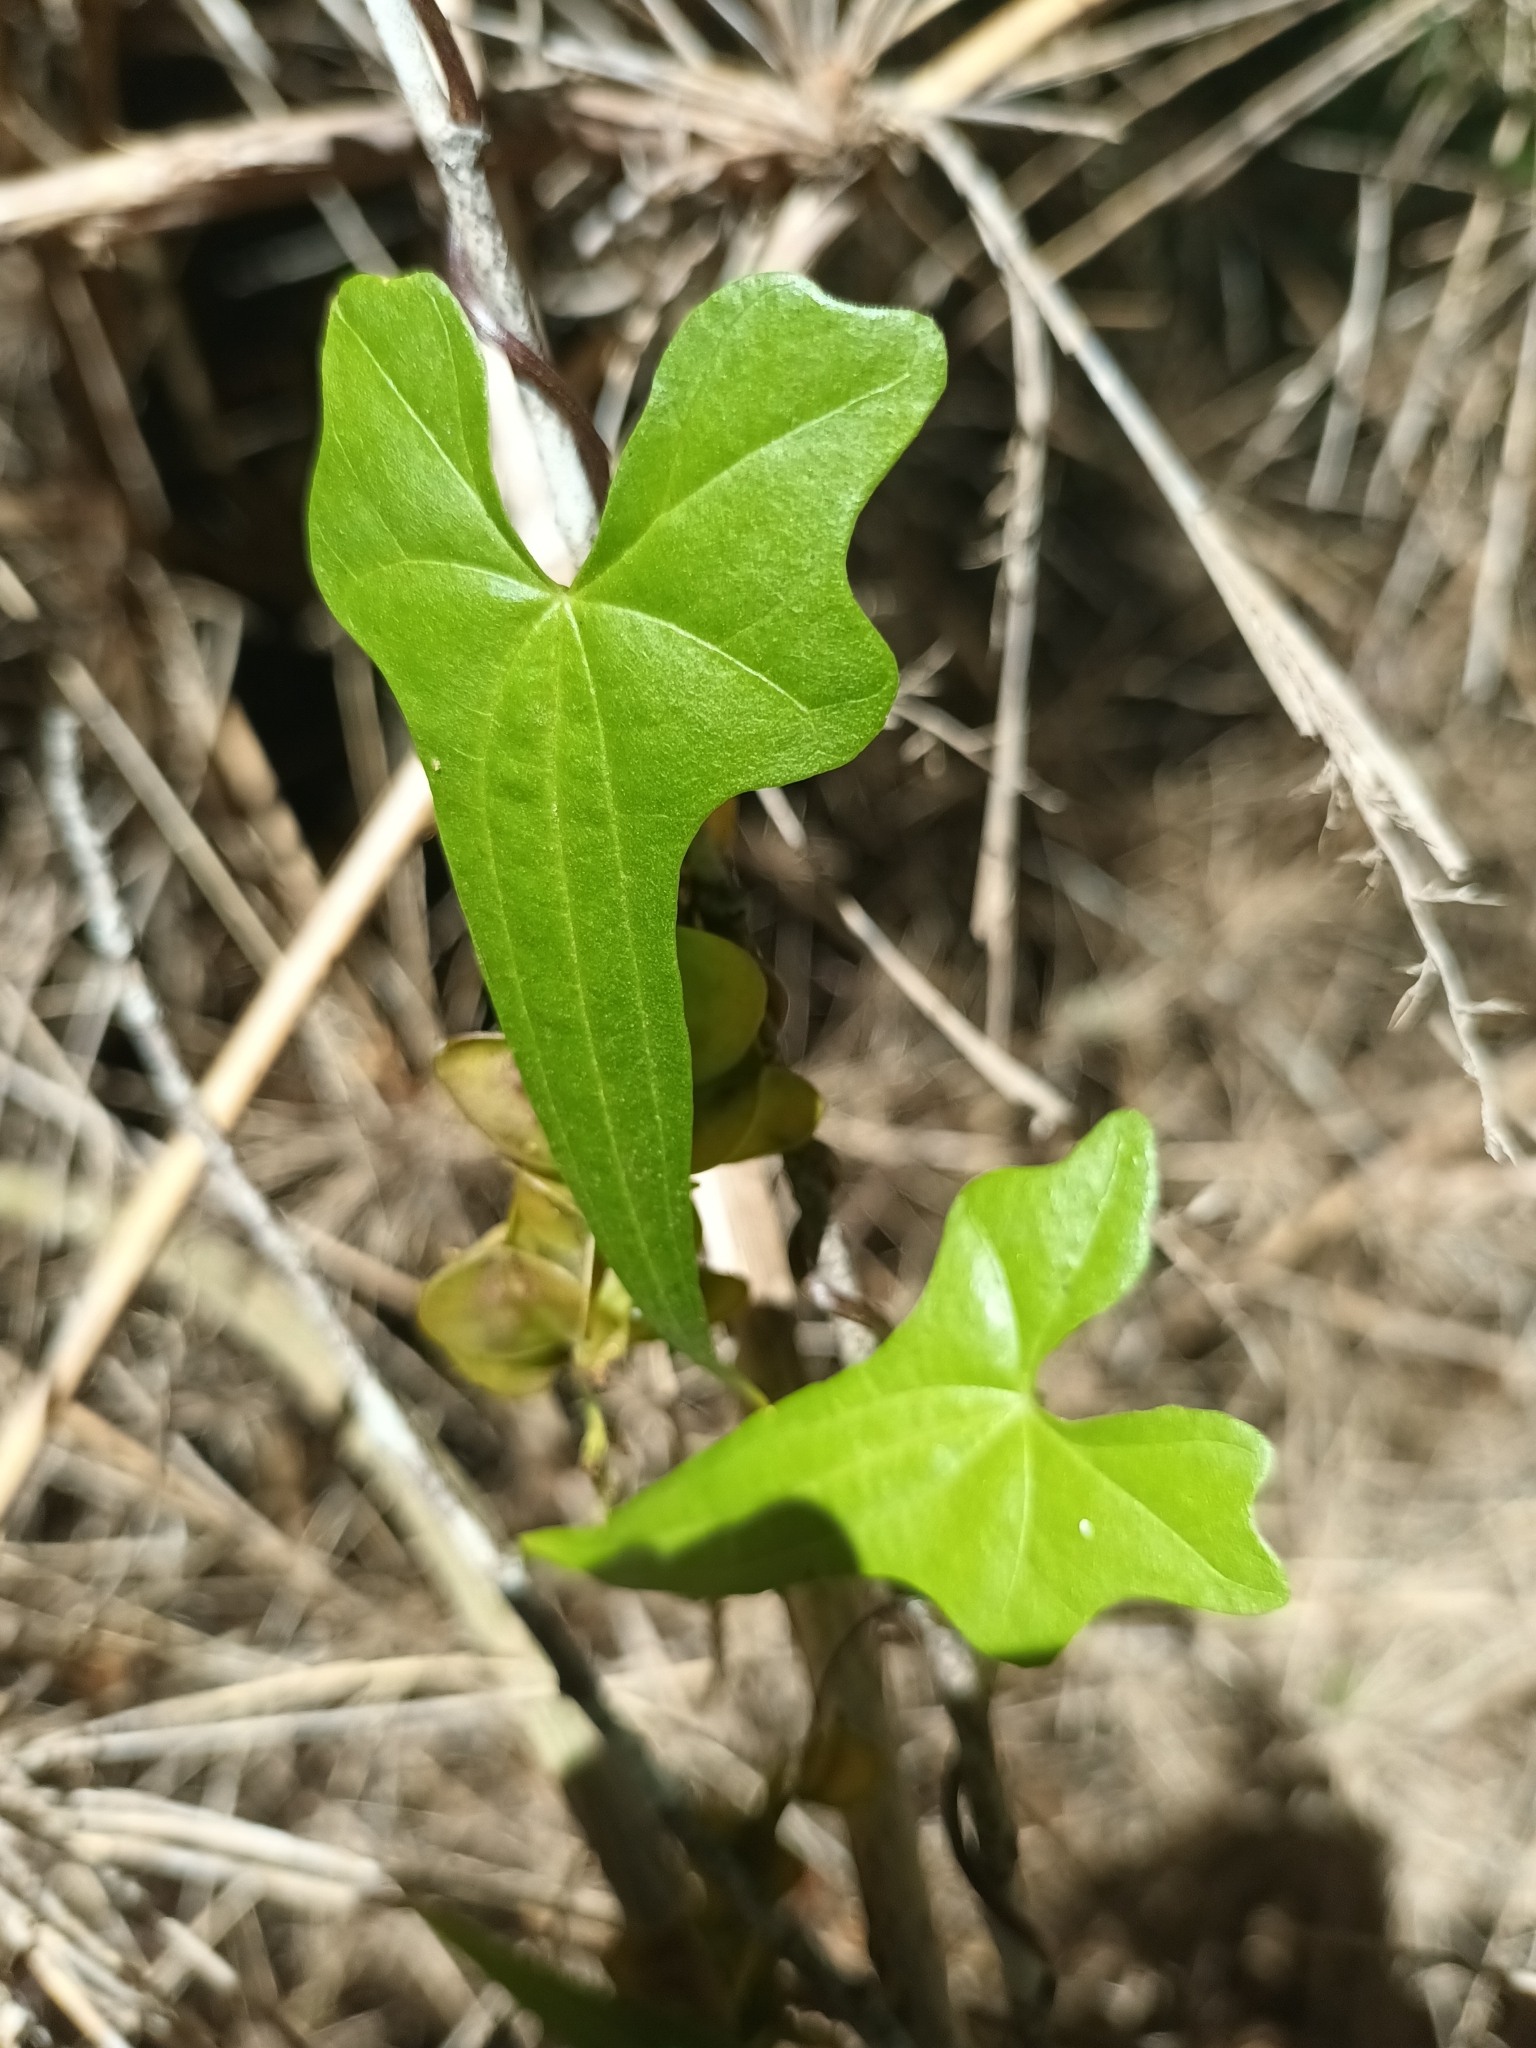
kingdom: Plantae
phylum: Tracheophyta
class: Liliopsida
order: Dioscoreales
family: Dioscoreaceae
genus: Dioscorea
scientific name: Dioscorea auriculata
